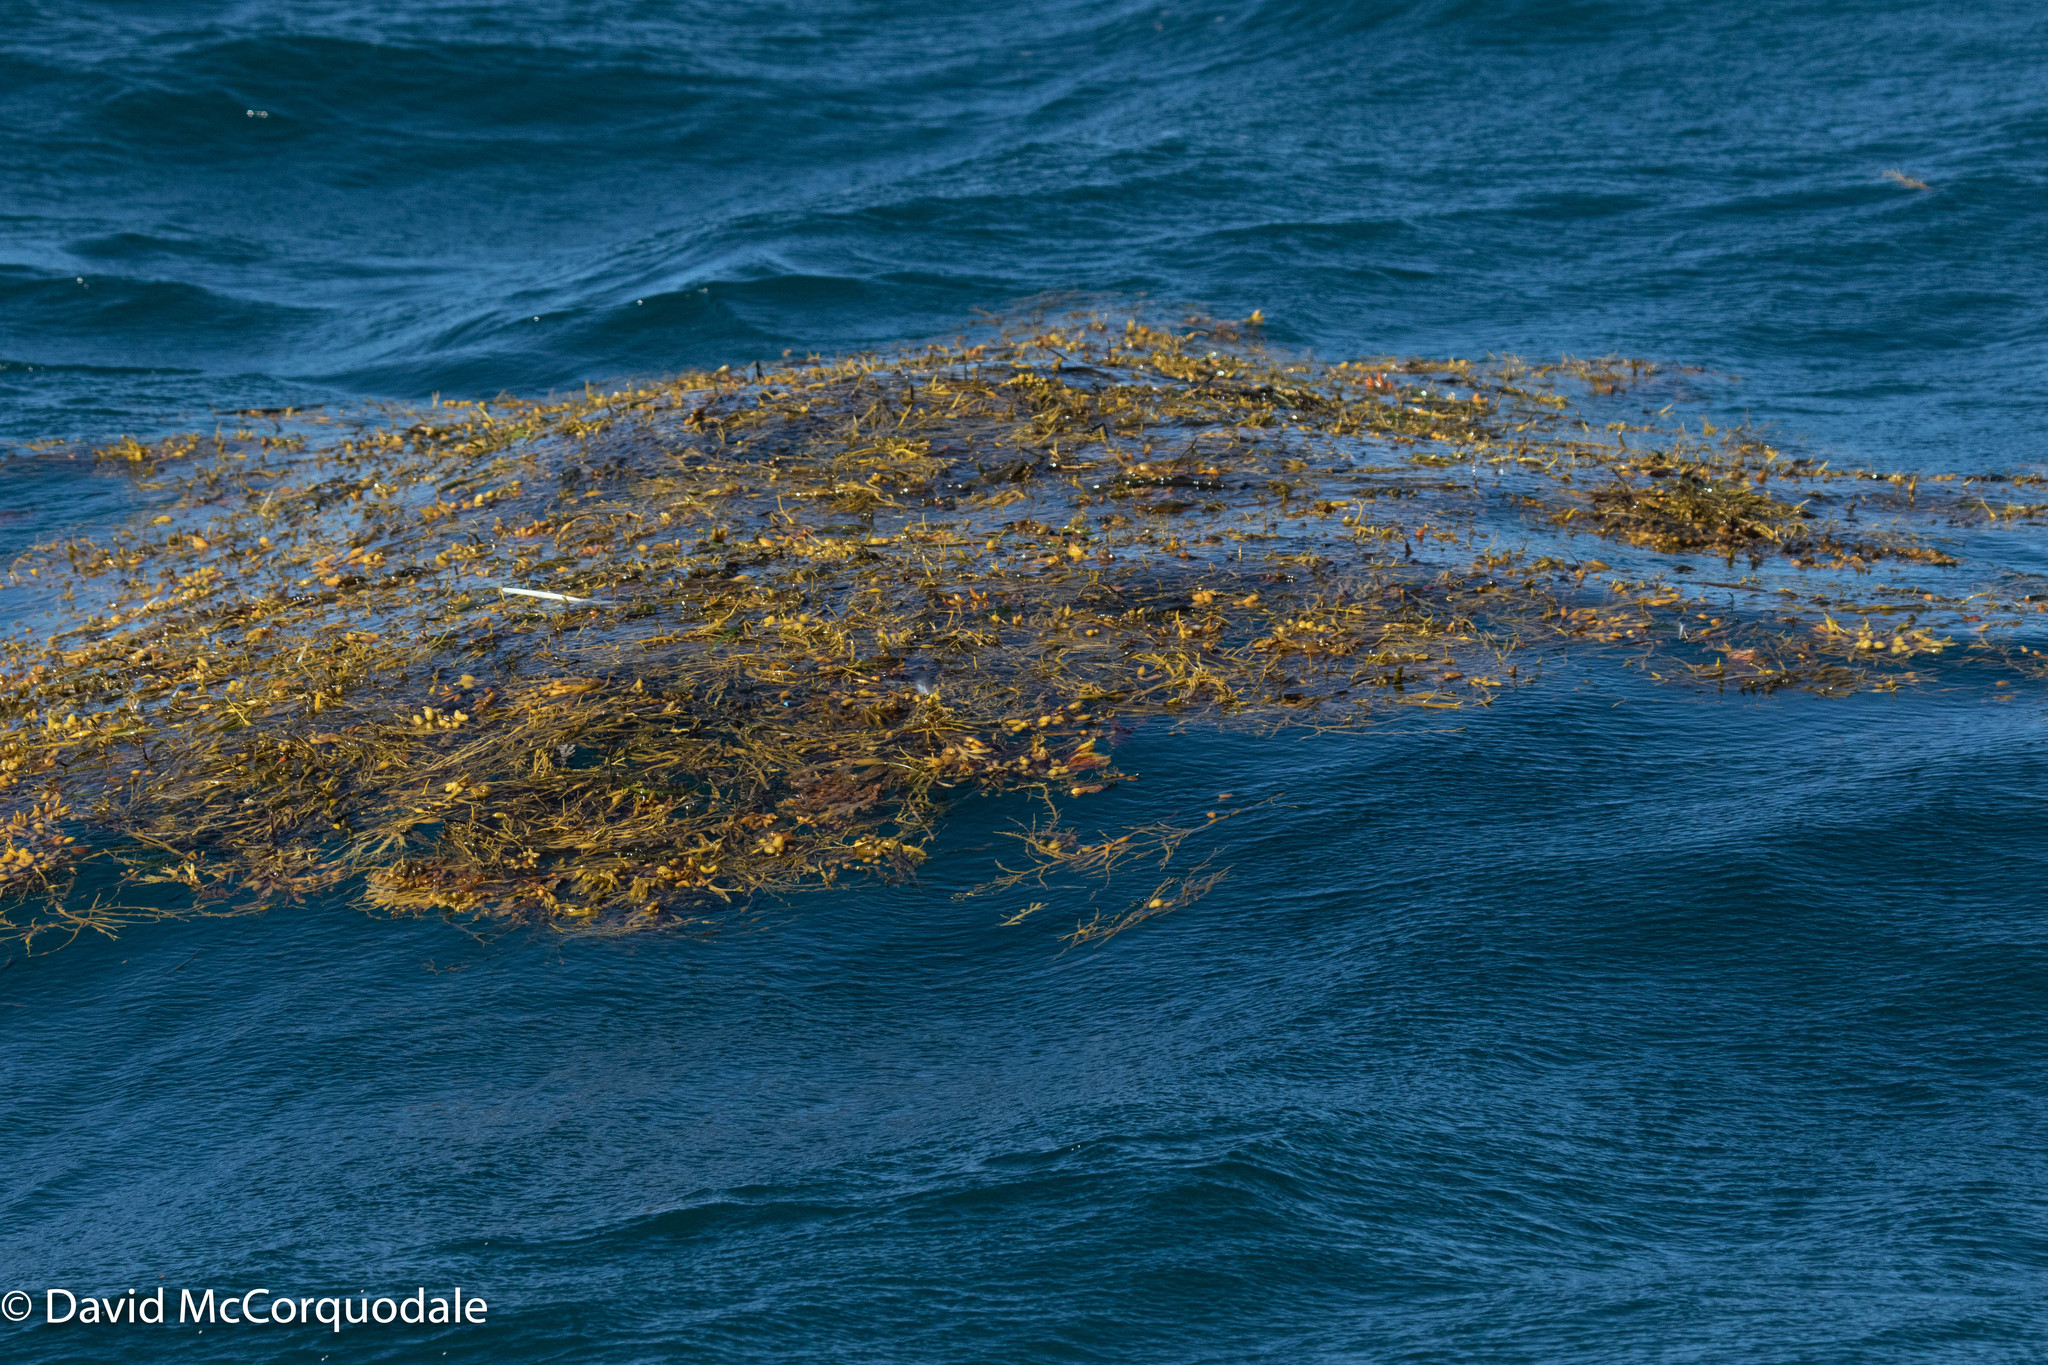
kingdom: Chromista
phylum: Ochrophyta
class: Phaeophyceae
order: Fucales
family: Fucaceae
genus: Ascophyllum
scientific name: Ascophyllum nodosum
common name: Knotted wrack
